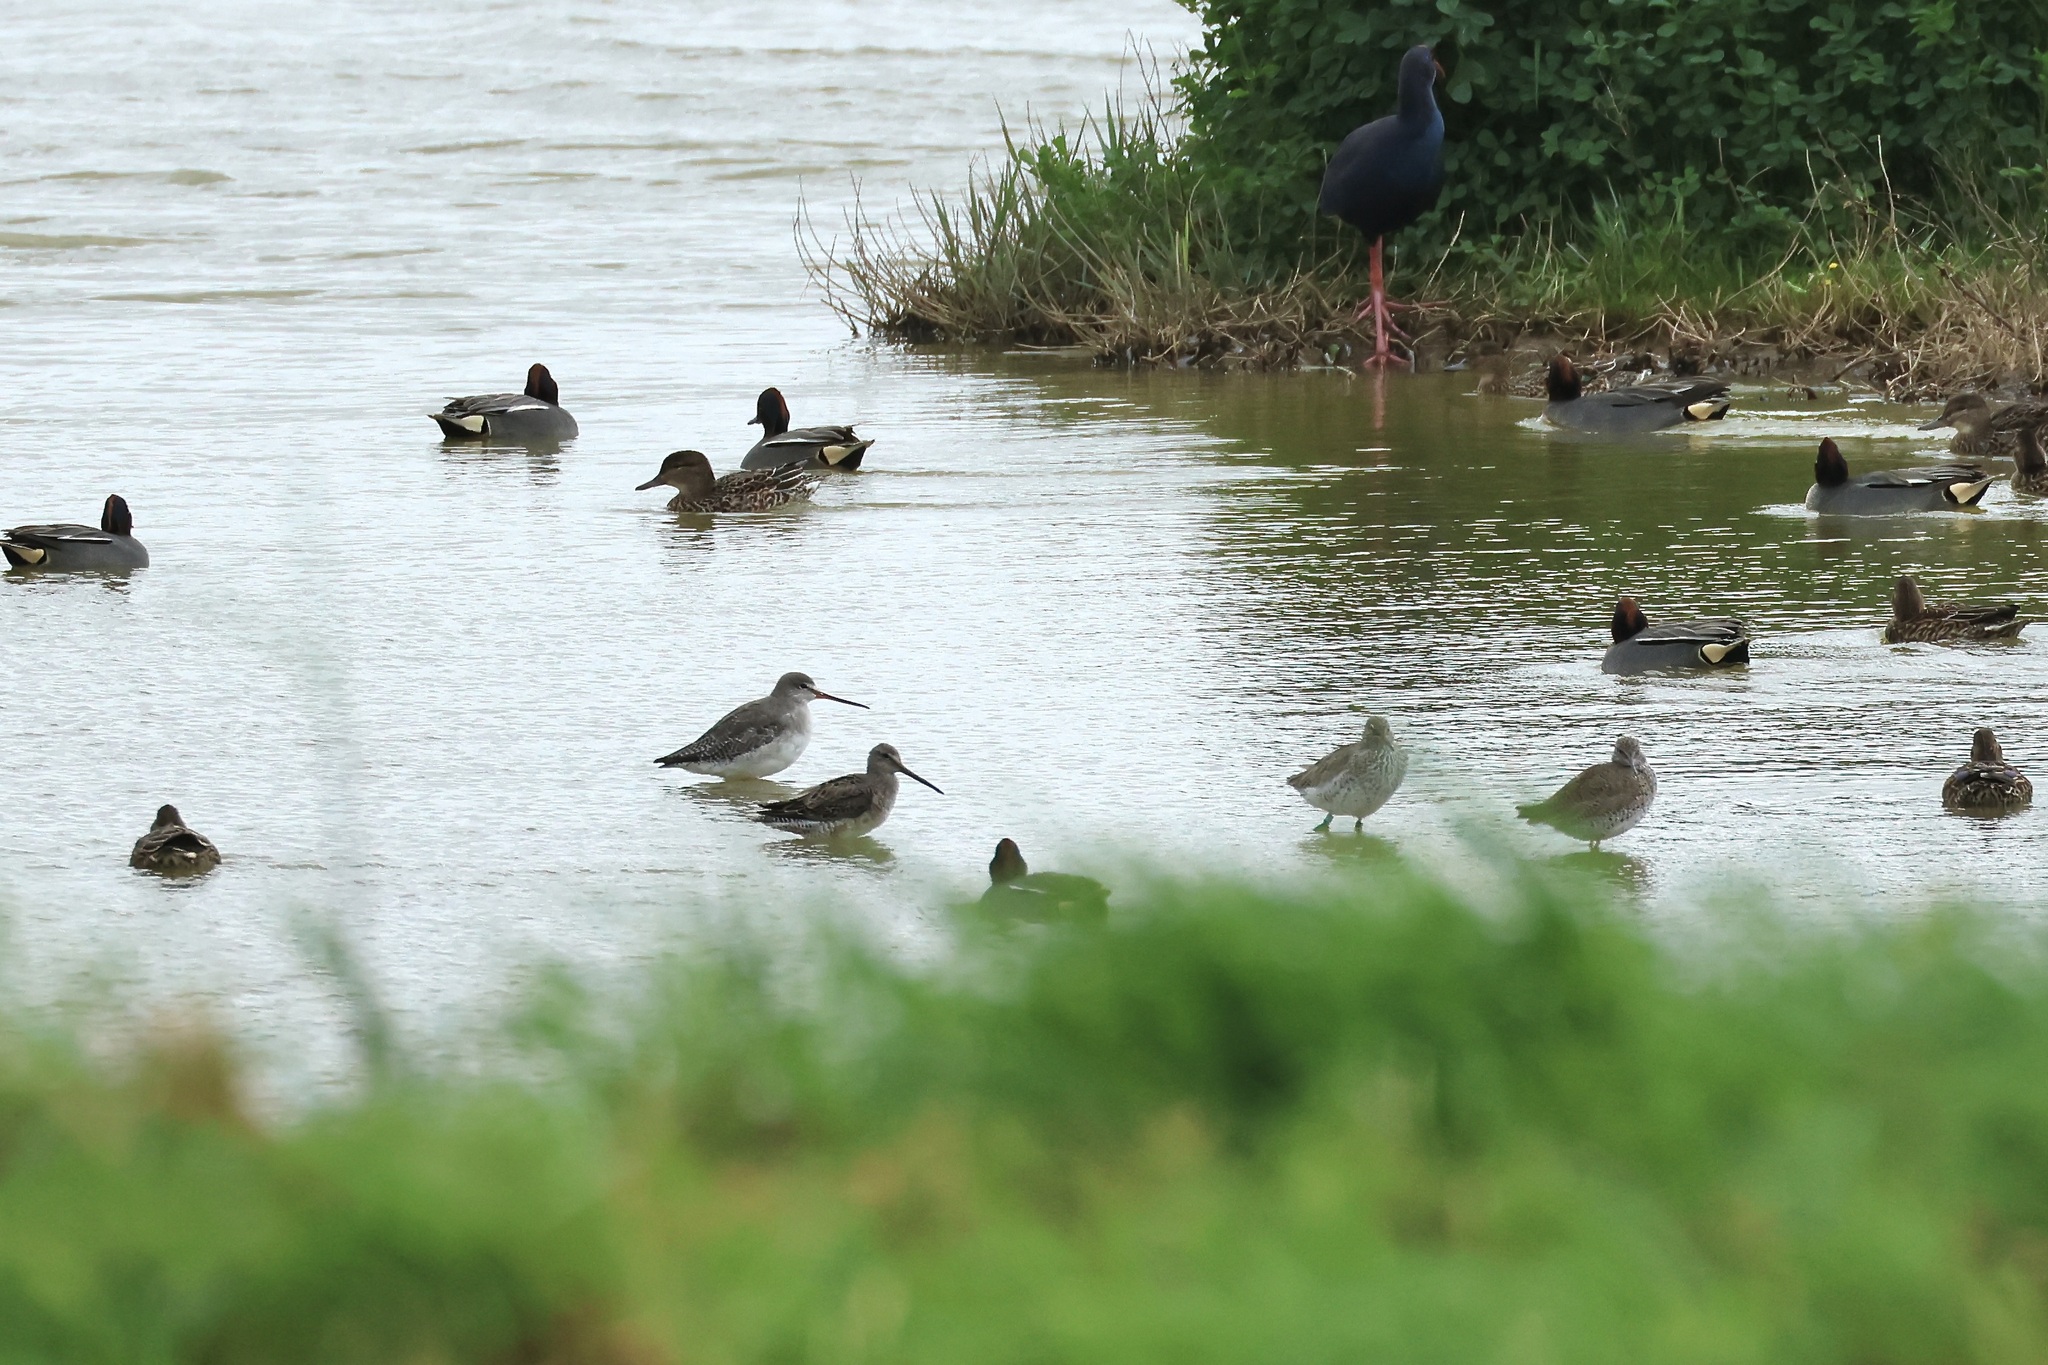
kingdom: Animalia
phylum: Chordata
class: Aves
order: Charadriiformes
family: Scolopacidae
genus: Limnodromus
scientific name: Limnodromus scolopaceus
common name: Long-billed dowitcher
